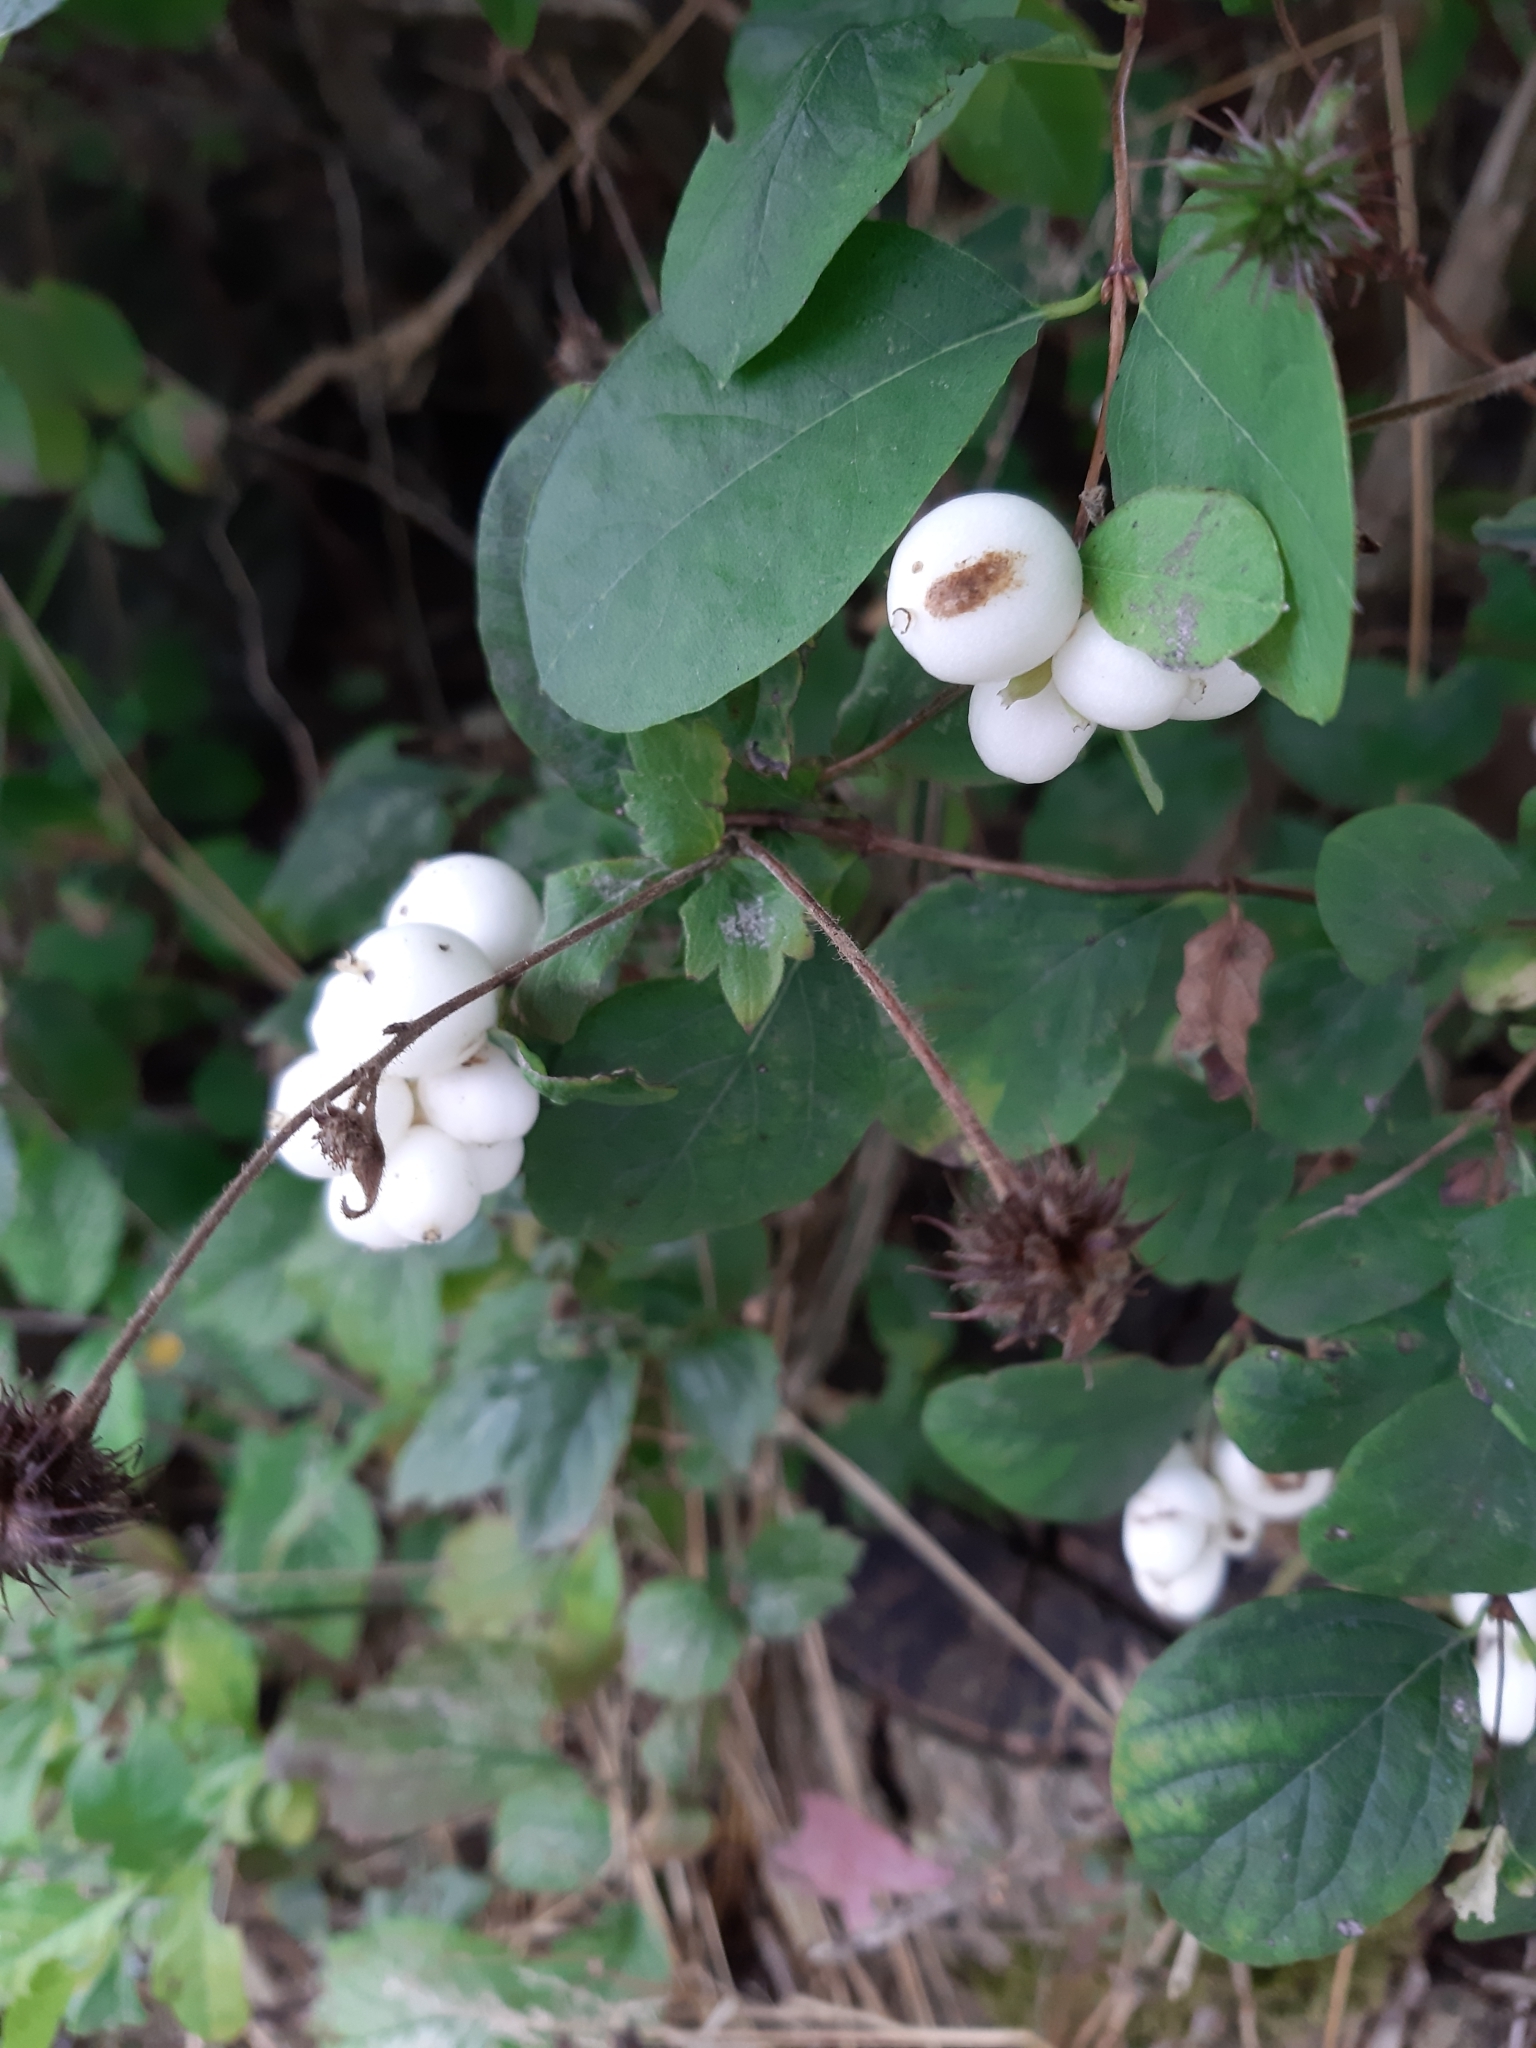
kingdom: Plantae
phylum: Tracheophyta
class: Magnoliopsida
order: Dipsacales
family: Caprifoliaceae
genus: Symphoricarpos
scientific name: Symphoricarpos albus
